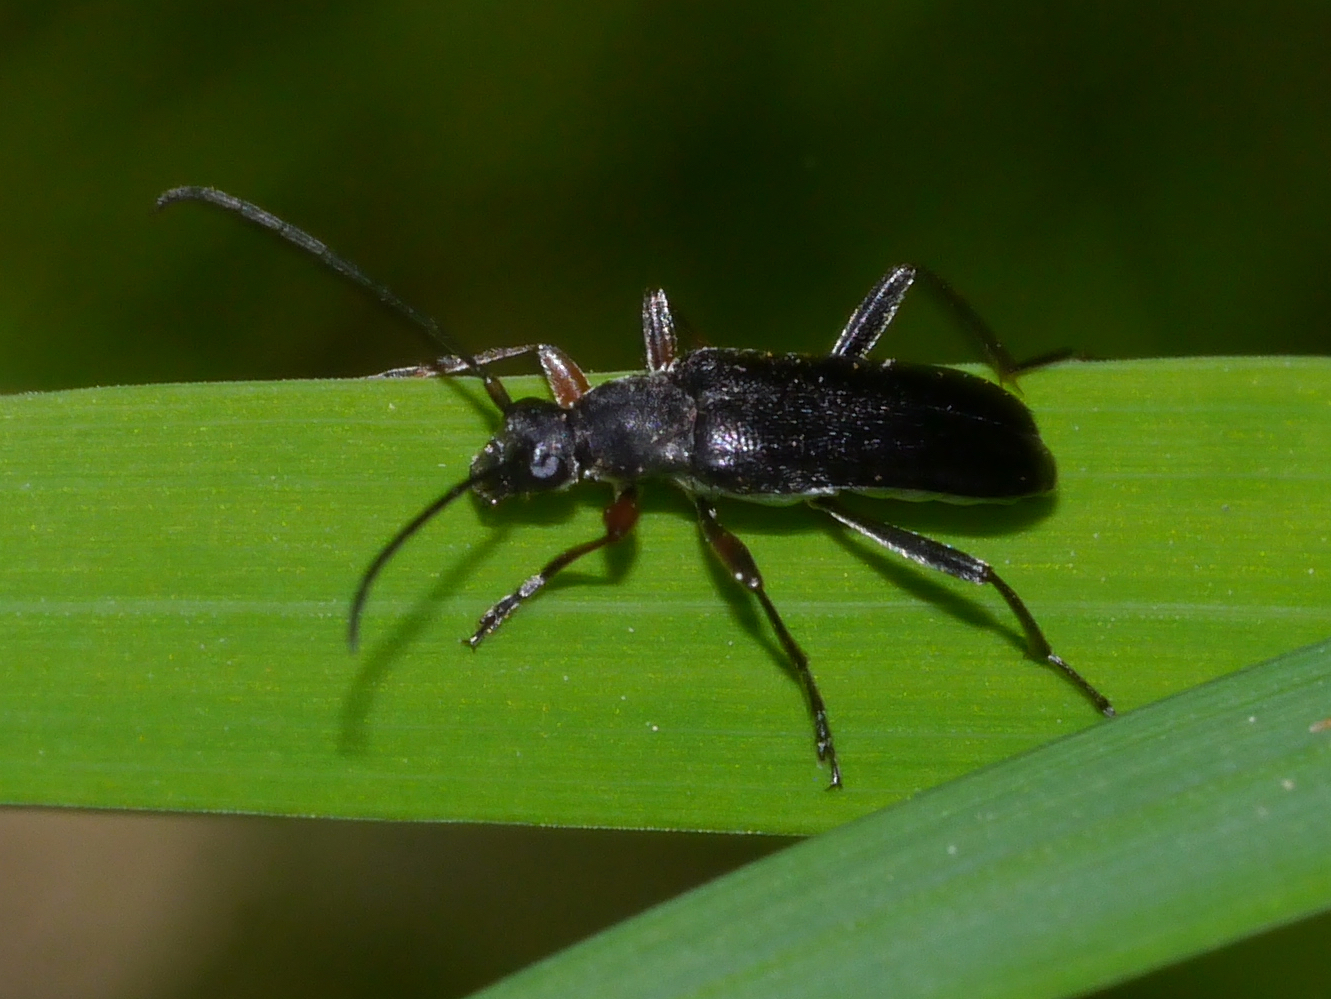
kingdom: Animalia
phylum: Arthropoda
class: Insecta
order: Coleoptera
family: Cerambycidae
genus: Grammoptera
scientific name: Grammoptera subargentata
